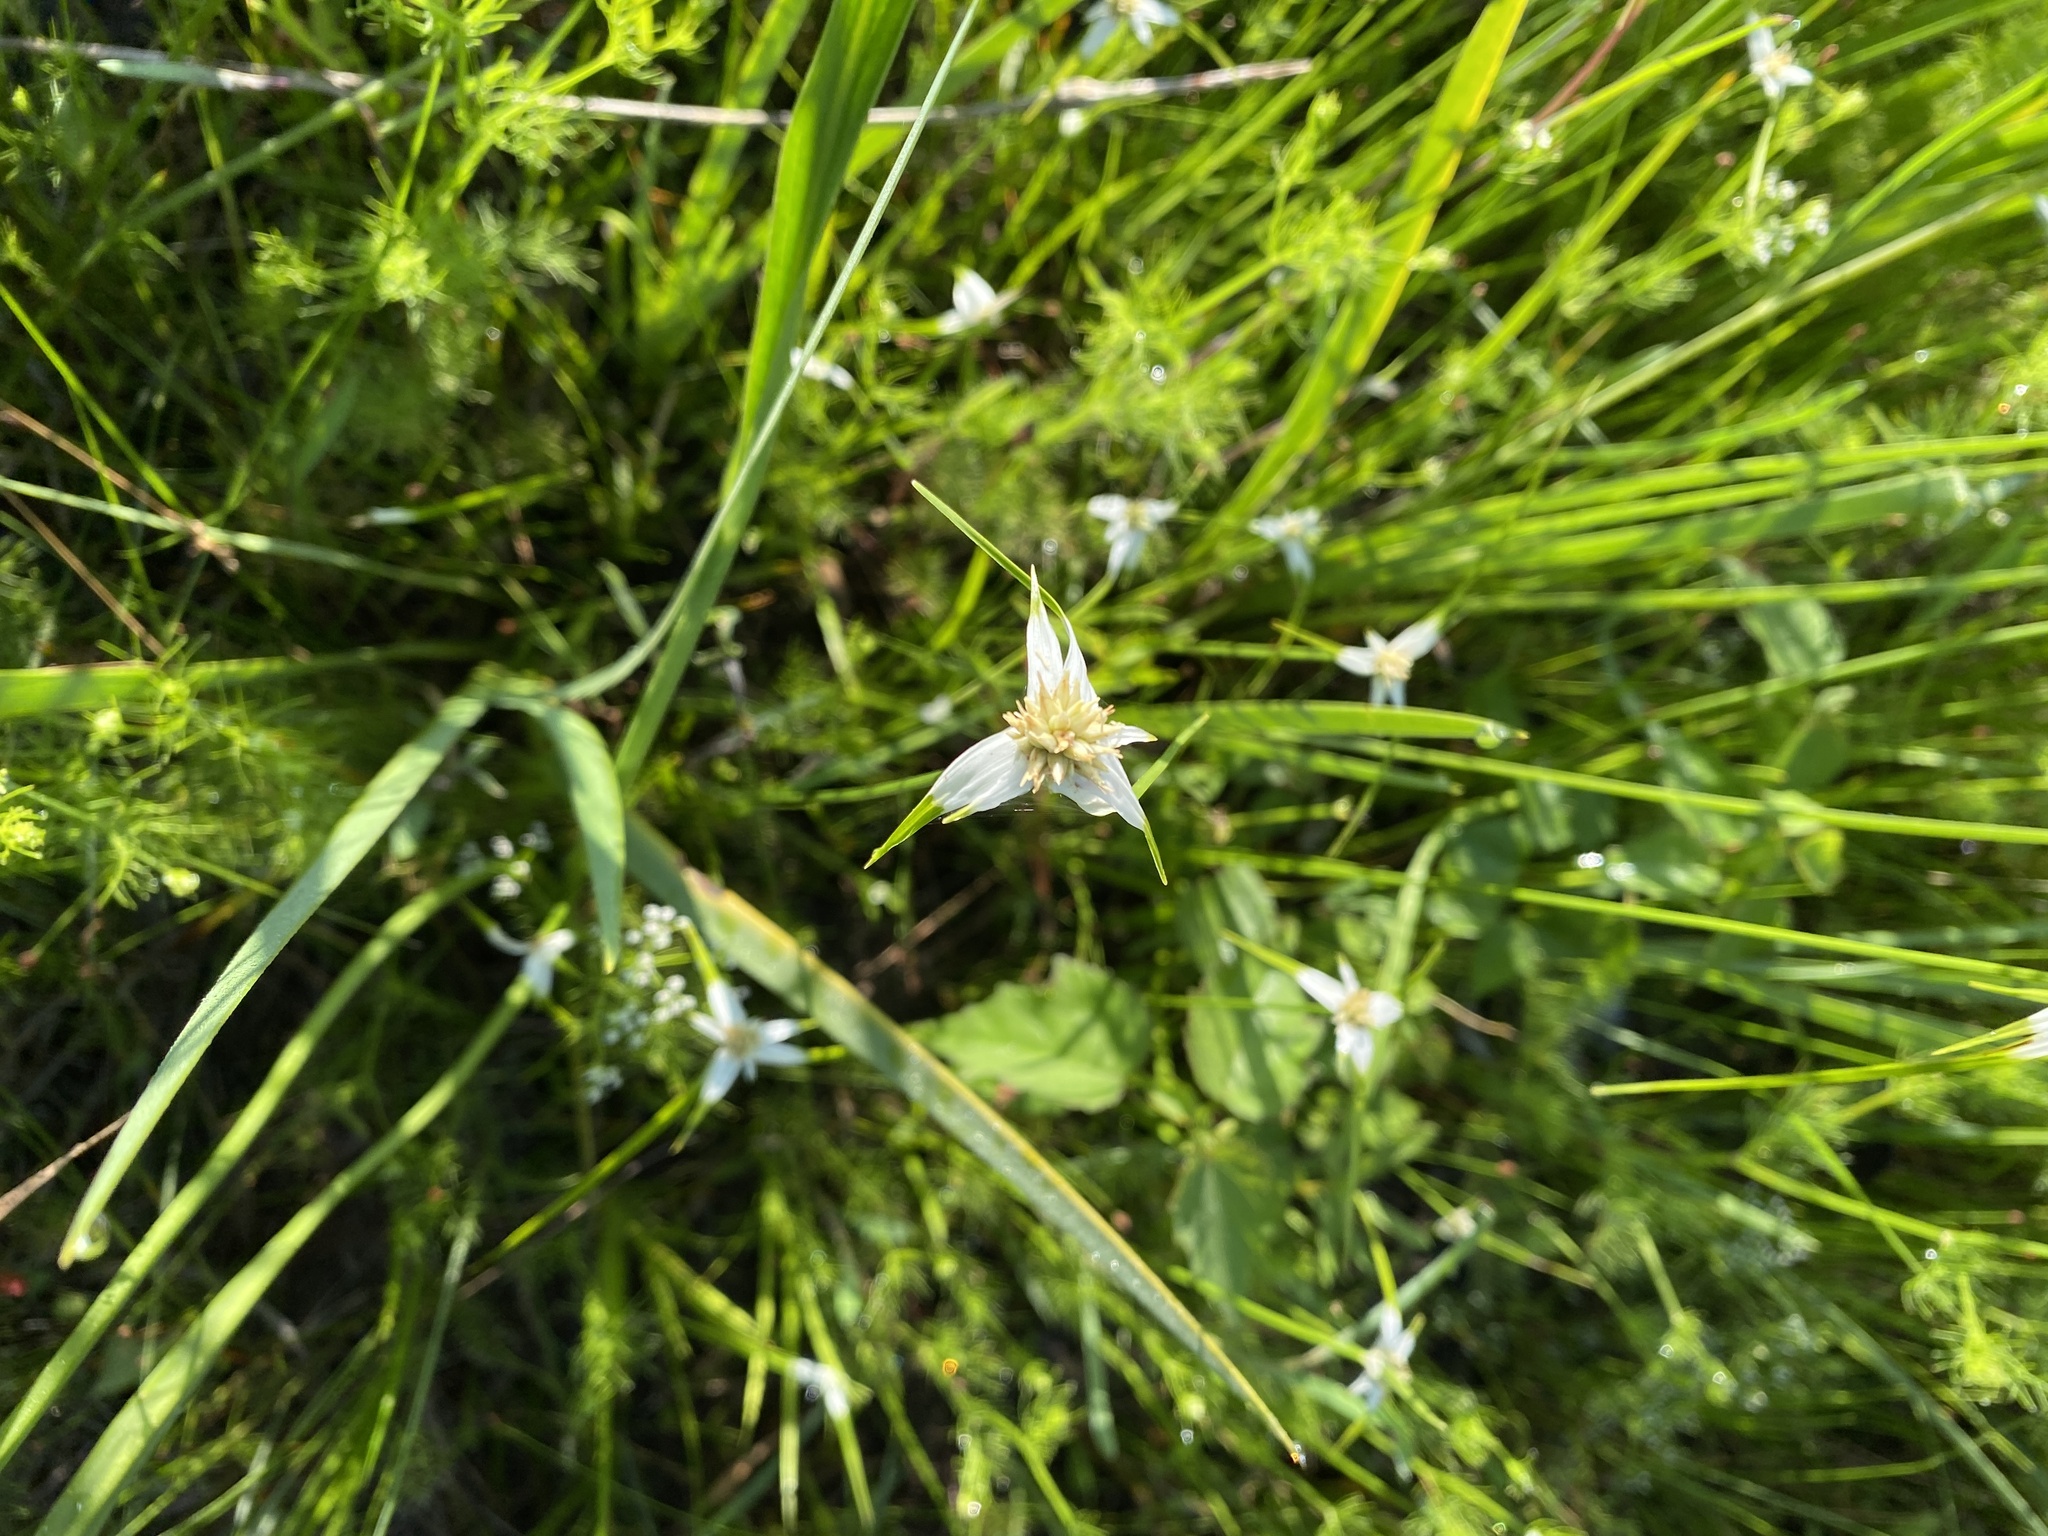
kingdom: Plantae
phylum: Tracheophyta
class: Liliopsida
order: Poales
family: Cyperaceae
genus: Rhynchospora
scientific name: Rhynchospora colorata
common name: Star sedge
